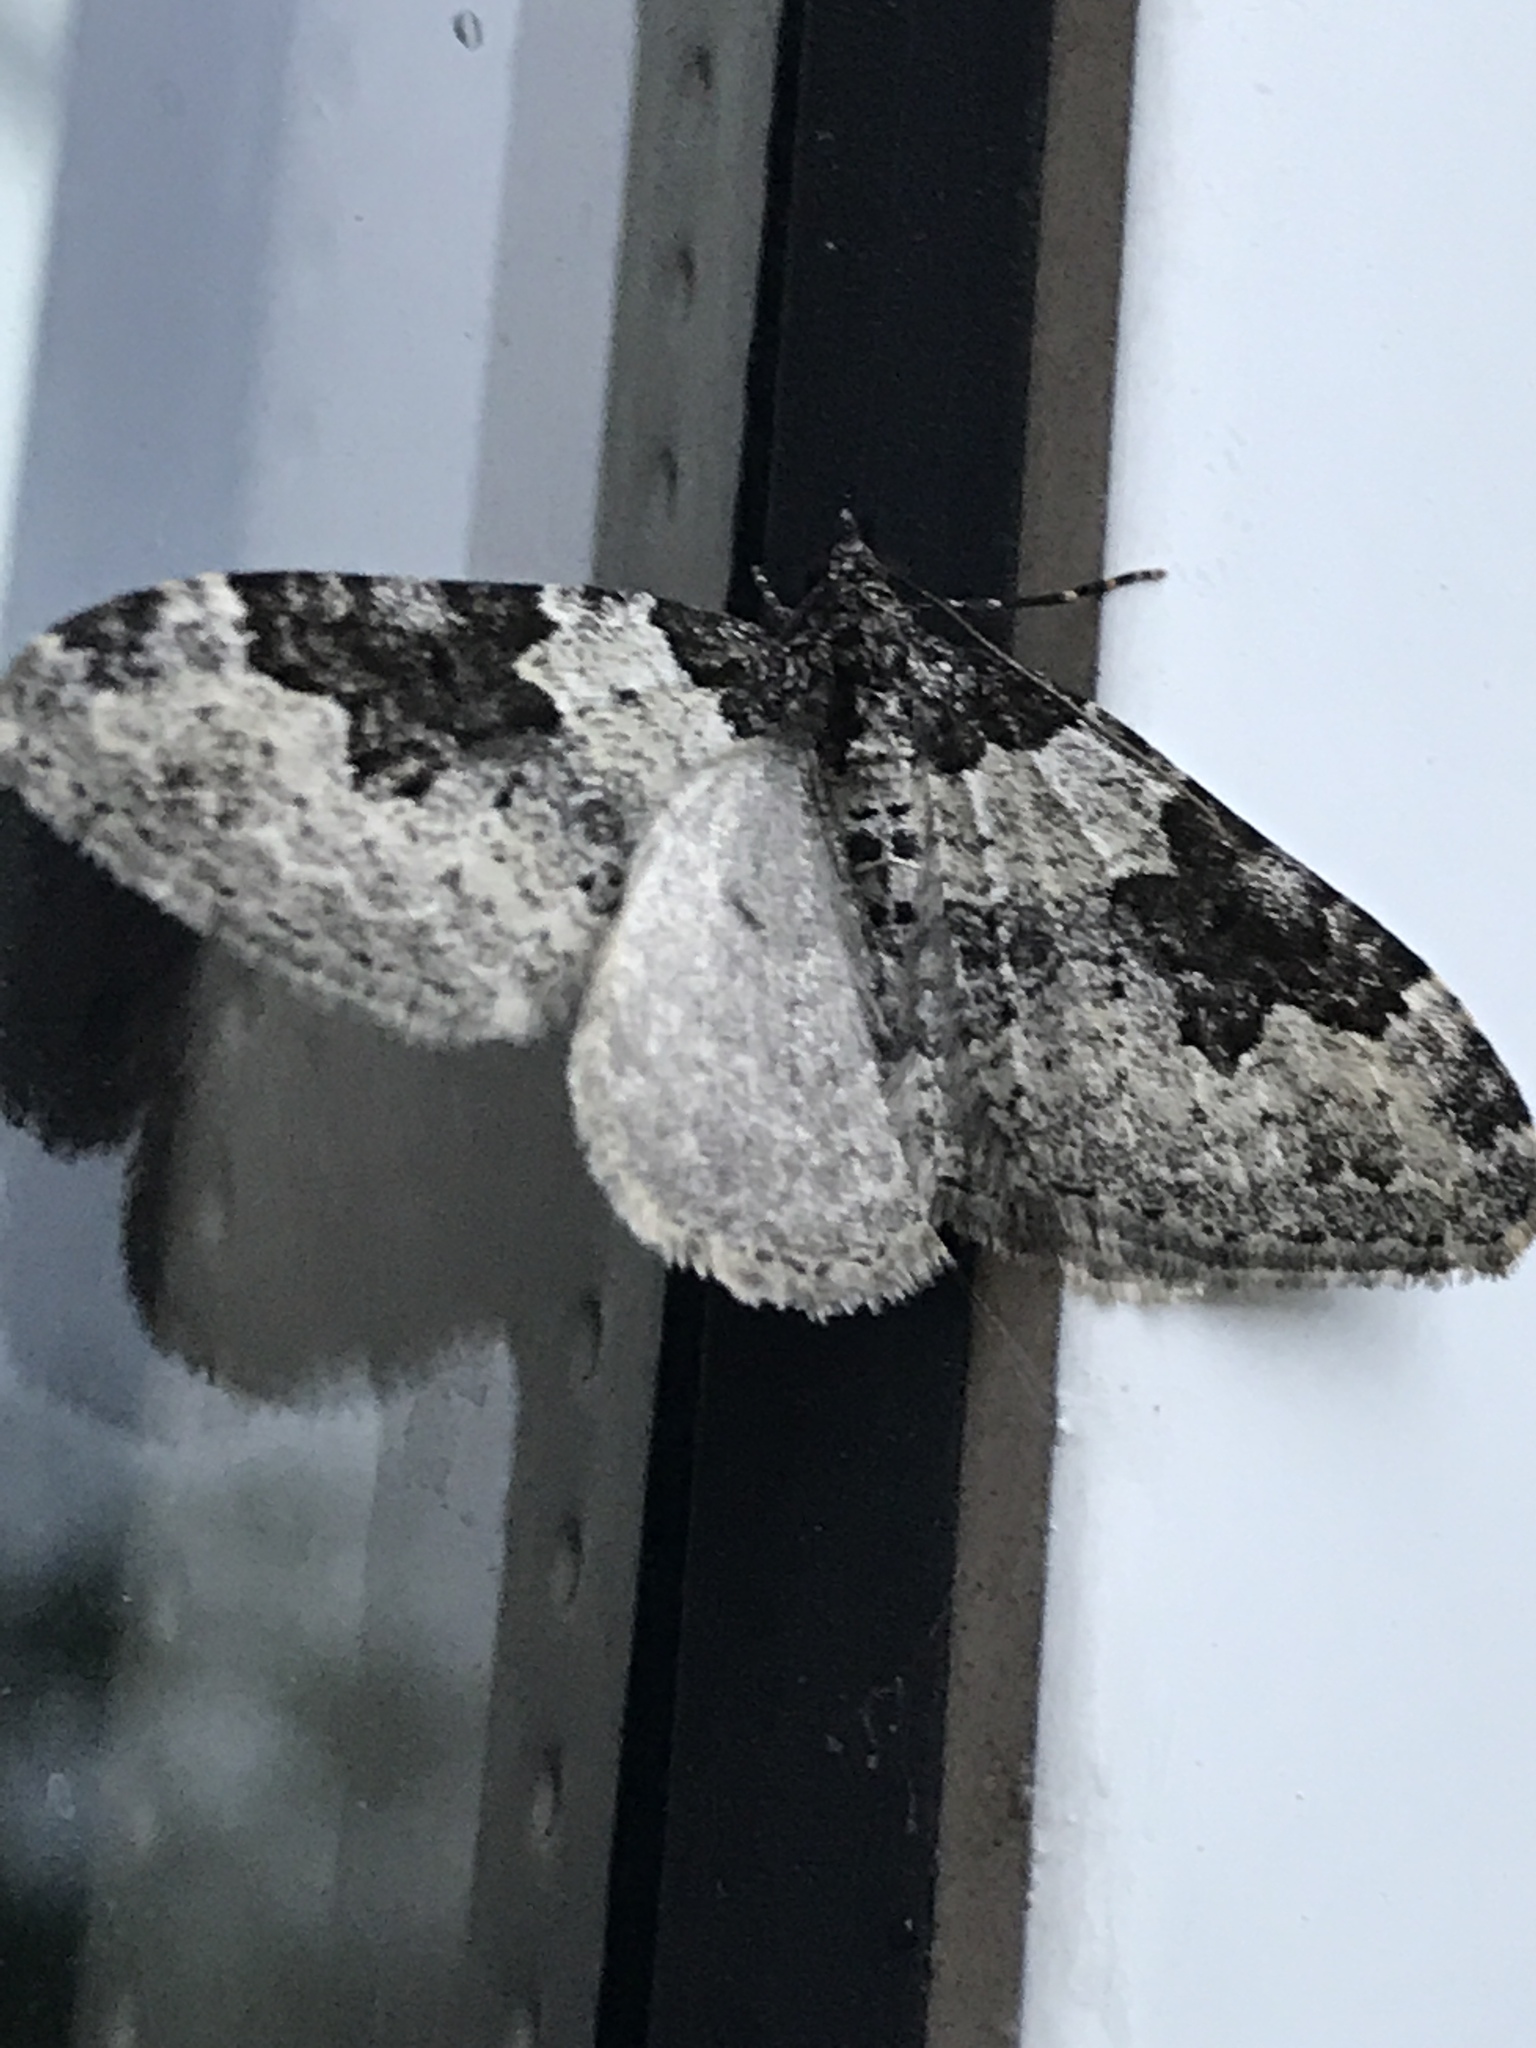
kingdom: Animalia
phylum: Arthropoda
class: Insecta
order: Lepidoptera
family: Geometridae
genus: Xanthorhoe
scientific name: Xanthorhoe fluctuata
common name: Garden carpet
